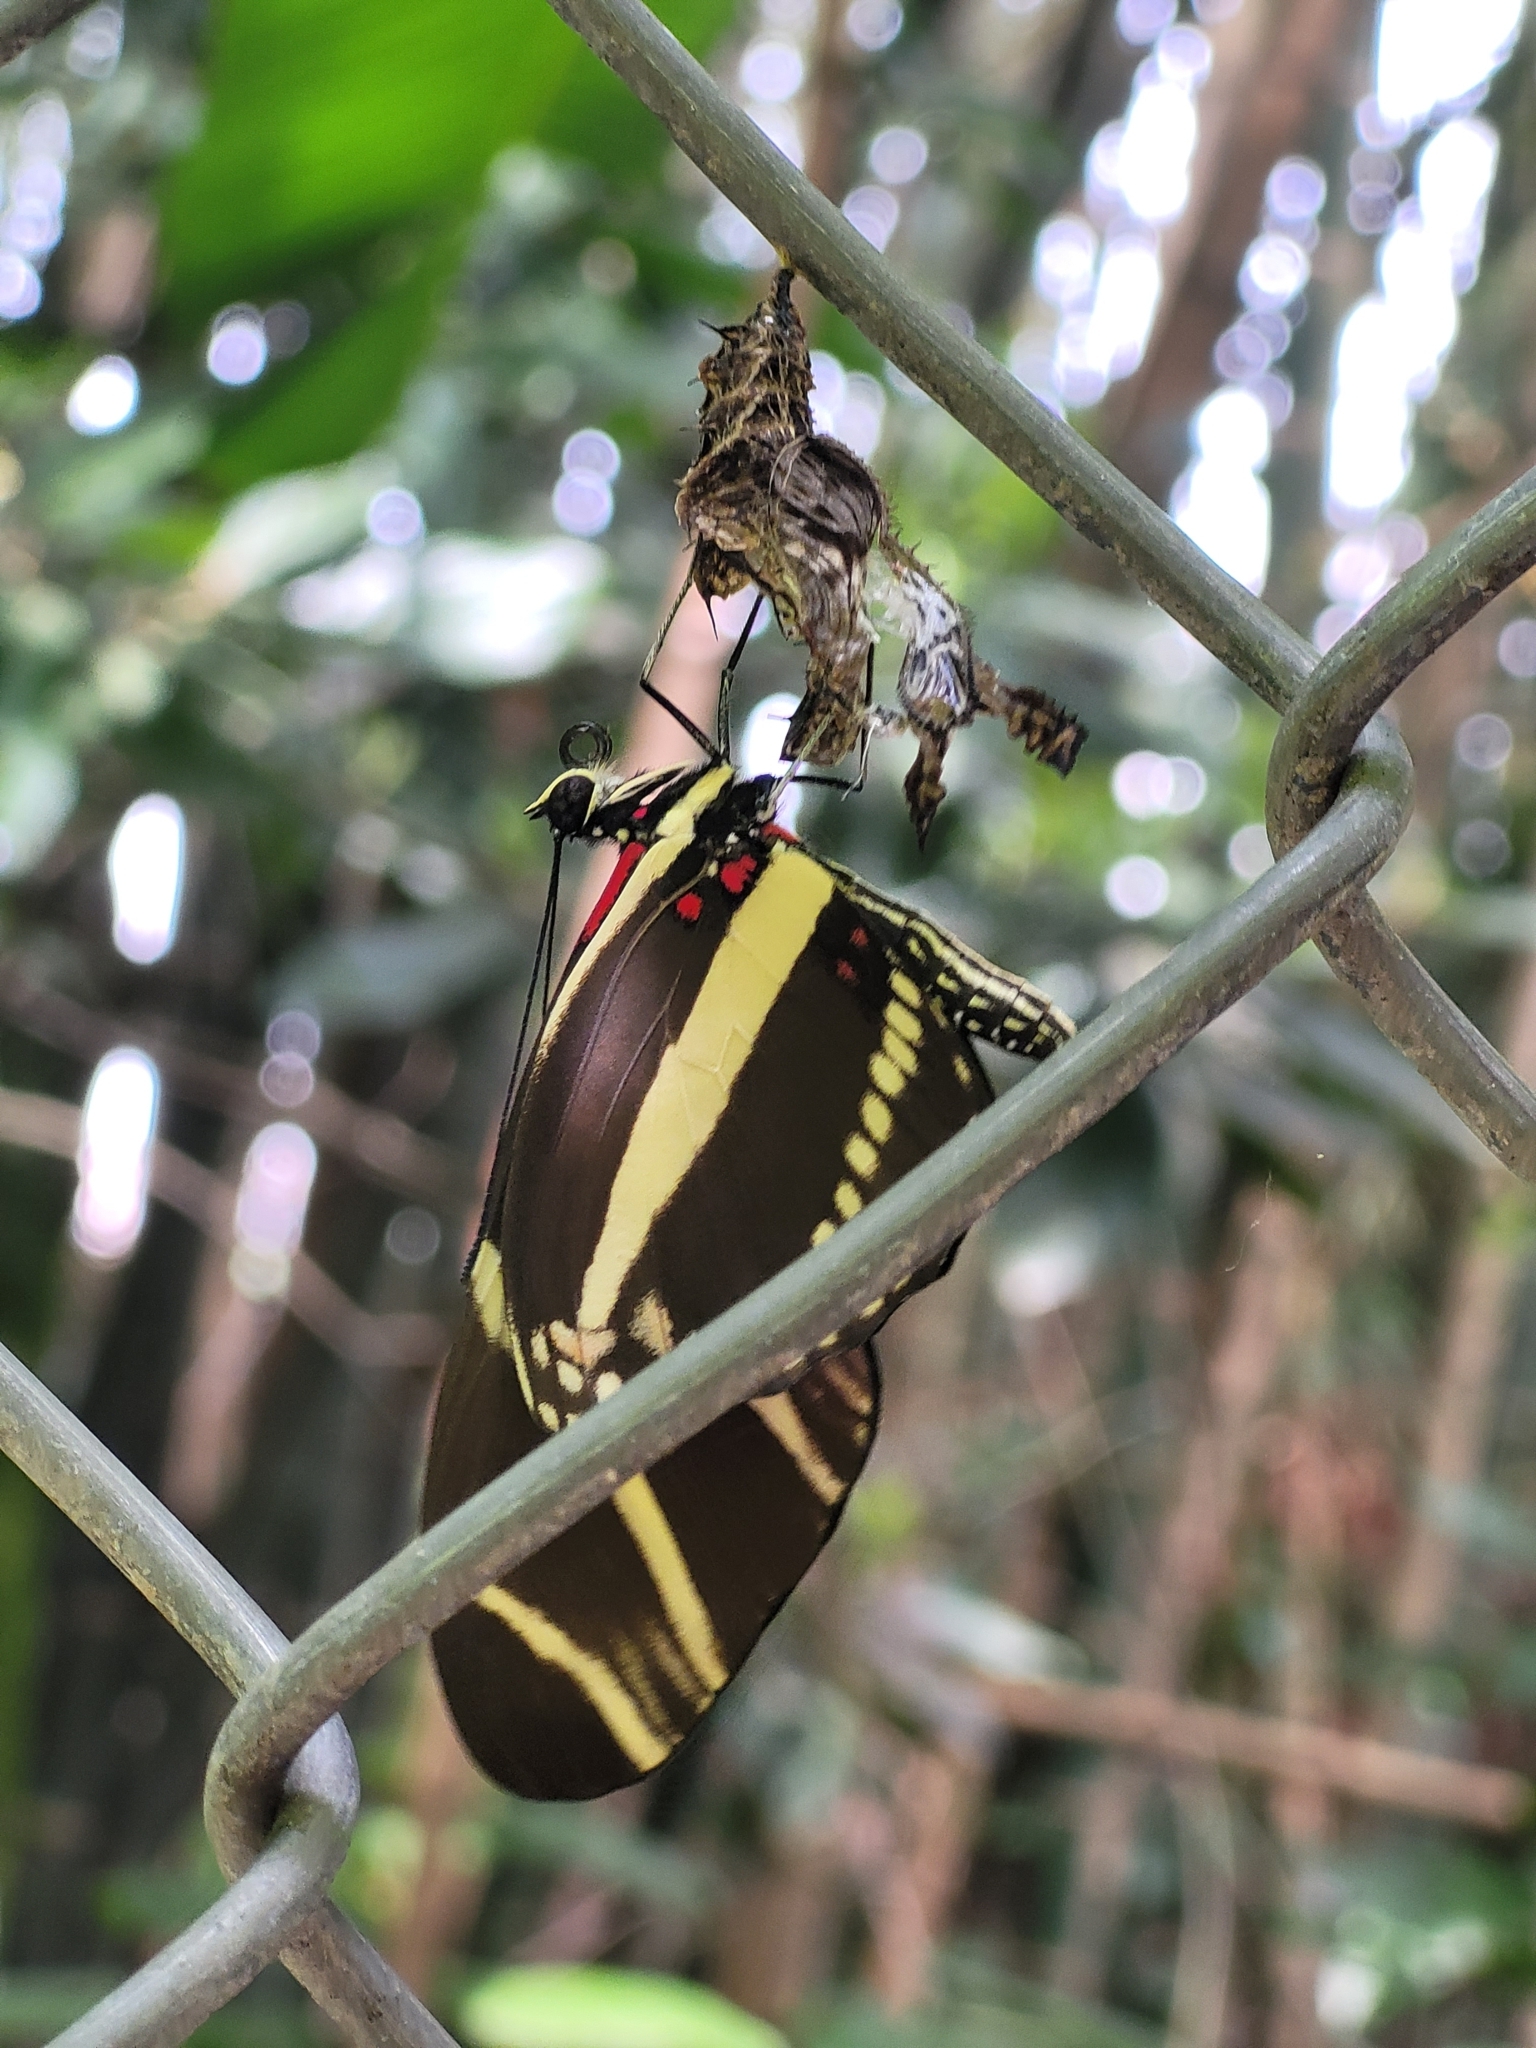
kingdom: Animalia
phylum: Arthropoda
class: Insecta
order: Lepidoptera
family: Nymphalidae
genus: Heliconius
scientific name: Heliconius charithonia
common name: Zebra long wing
